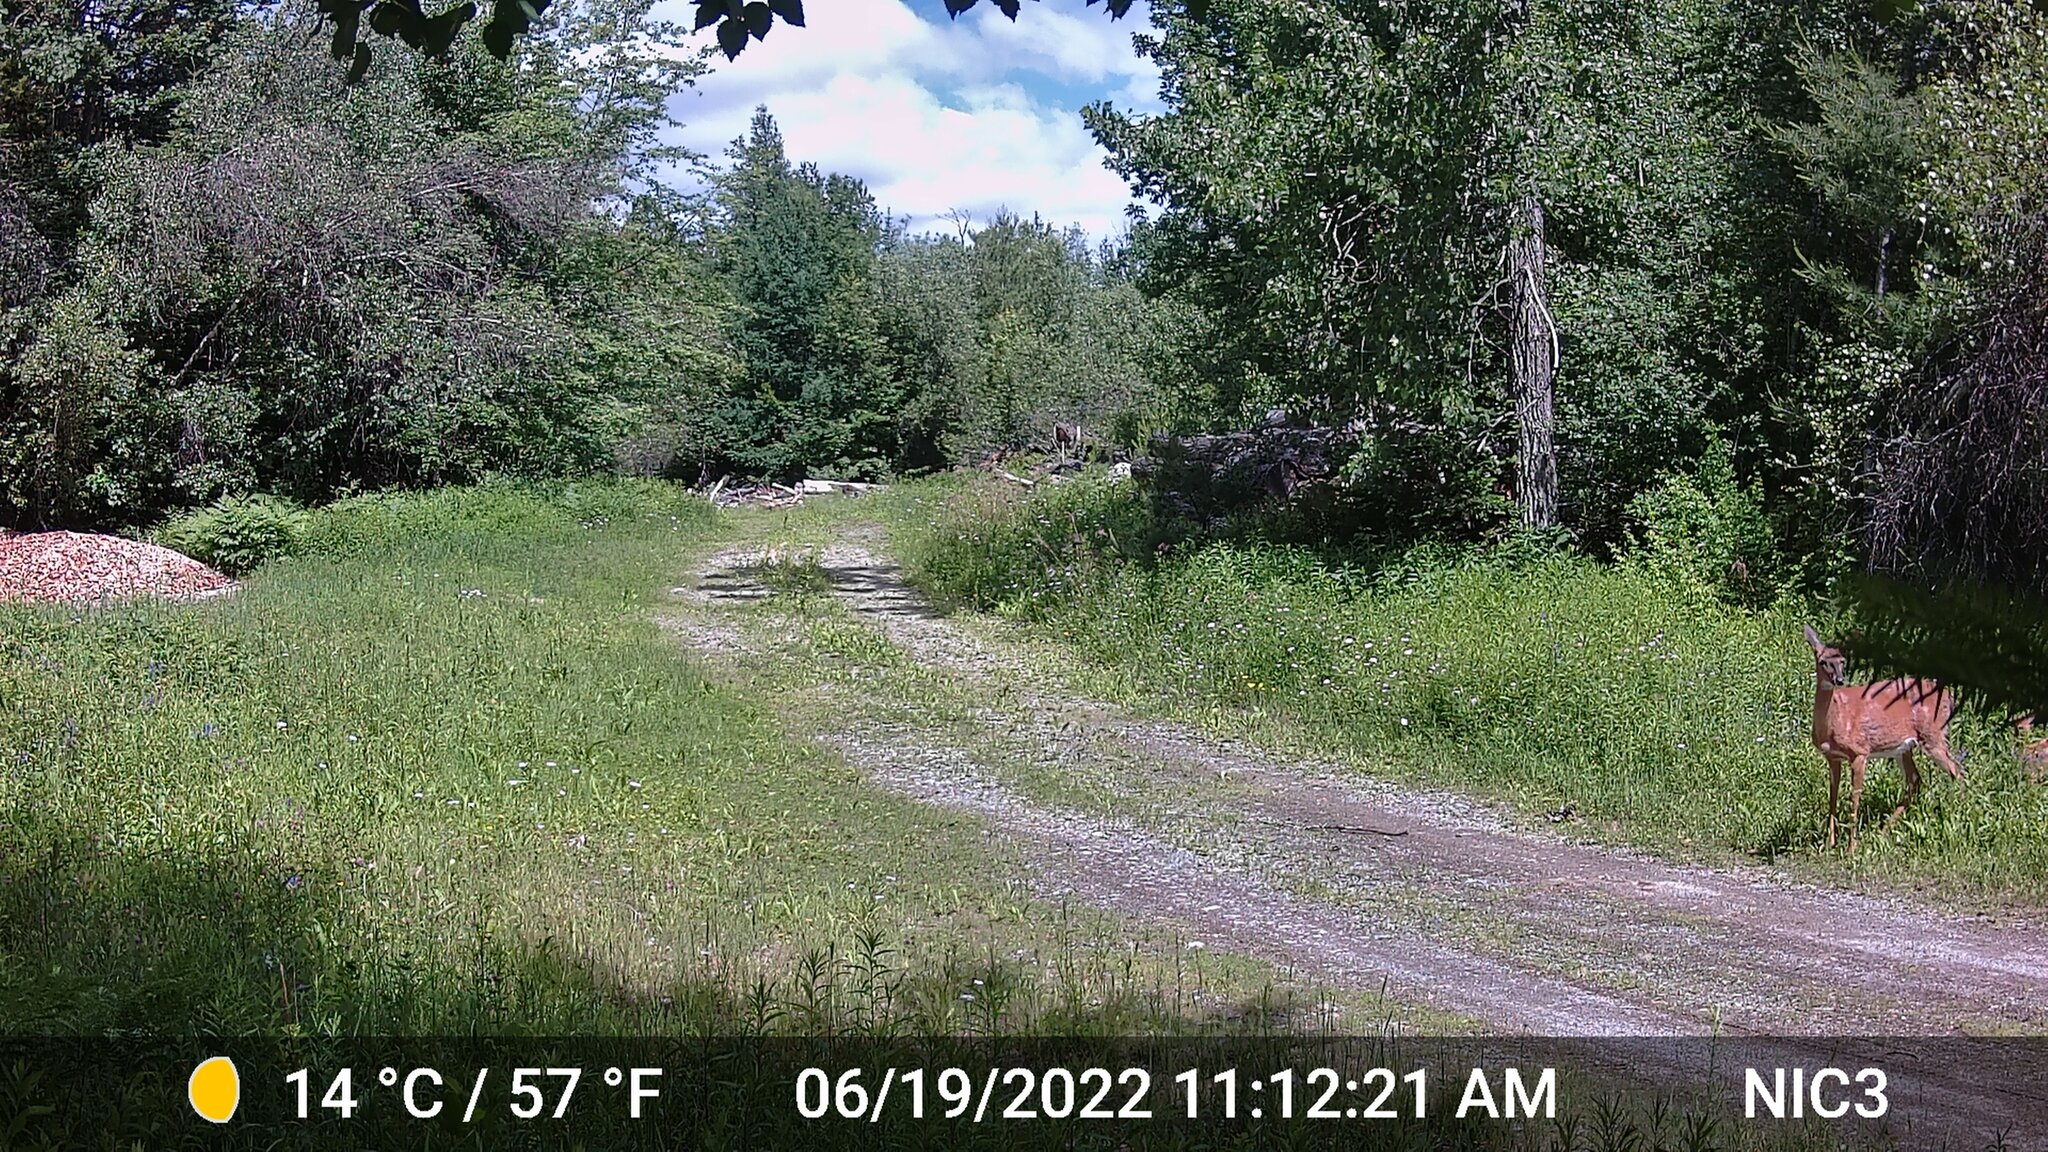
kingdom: Animalia
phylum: Chordata
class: Mammalia
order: Artiodactyla
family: Cervidae
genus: Odocoileus
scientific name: Odocoileus virginianus
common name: White-tailed deer
